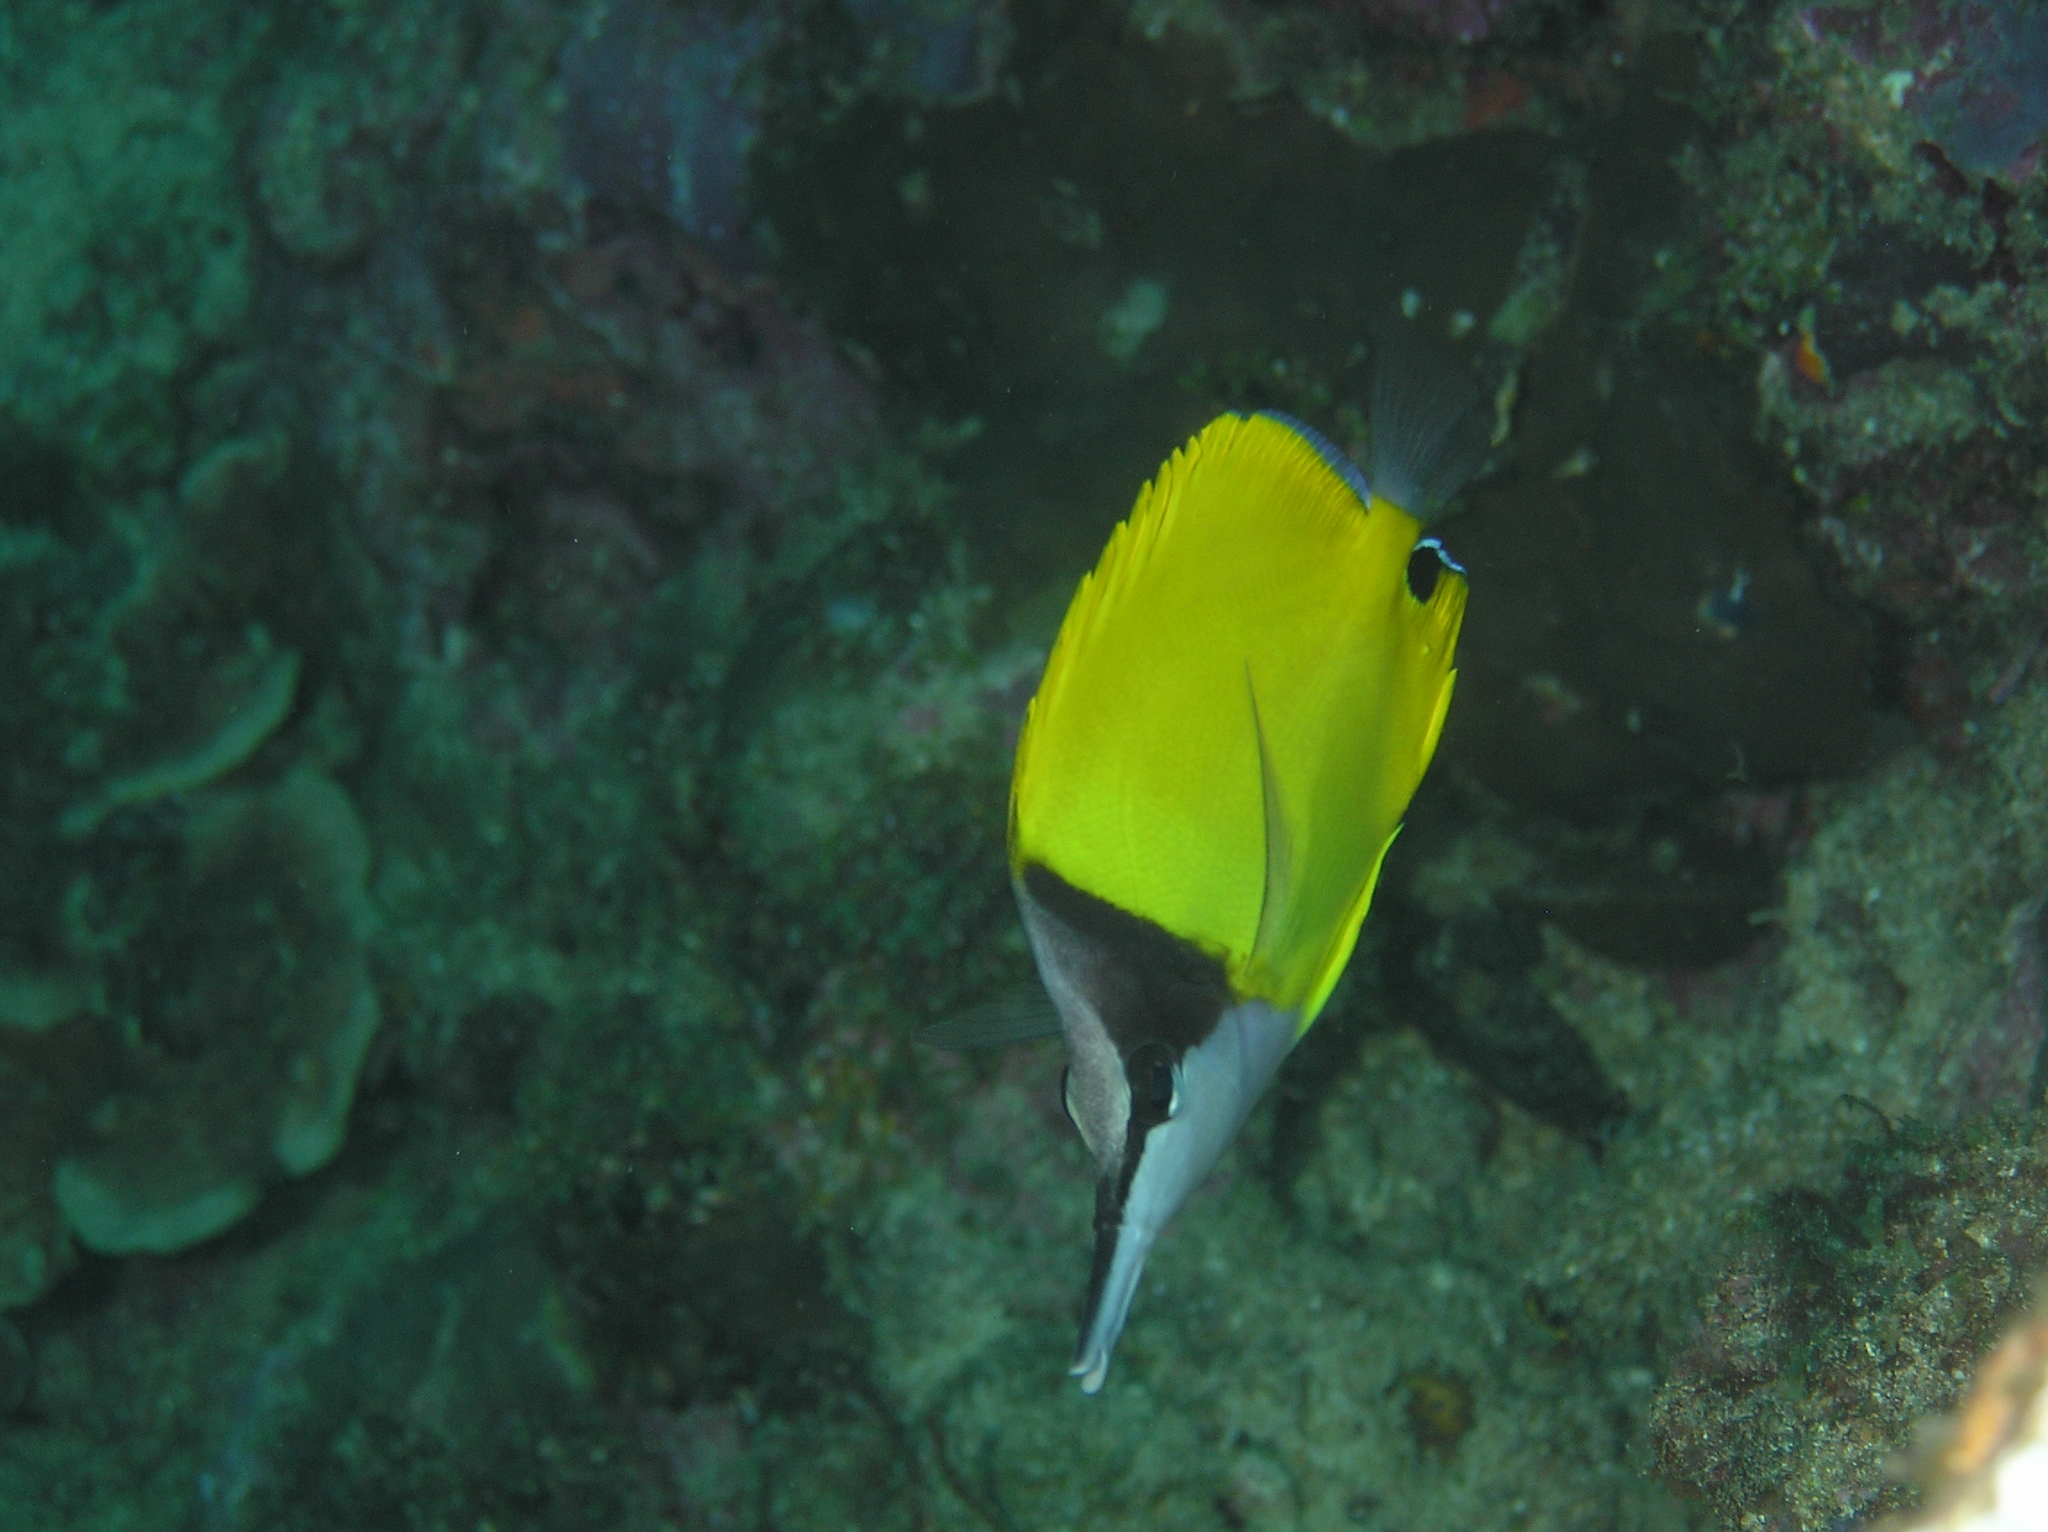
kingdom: Animalia
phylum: Chordata
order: Perciformes
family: Chaetodontidae
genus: Forcipiger
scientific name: Forcipiger flavissimus
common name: Forcepsfish
